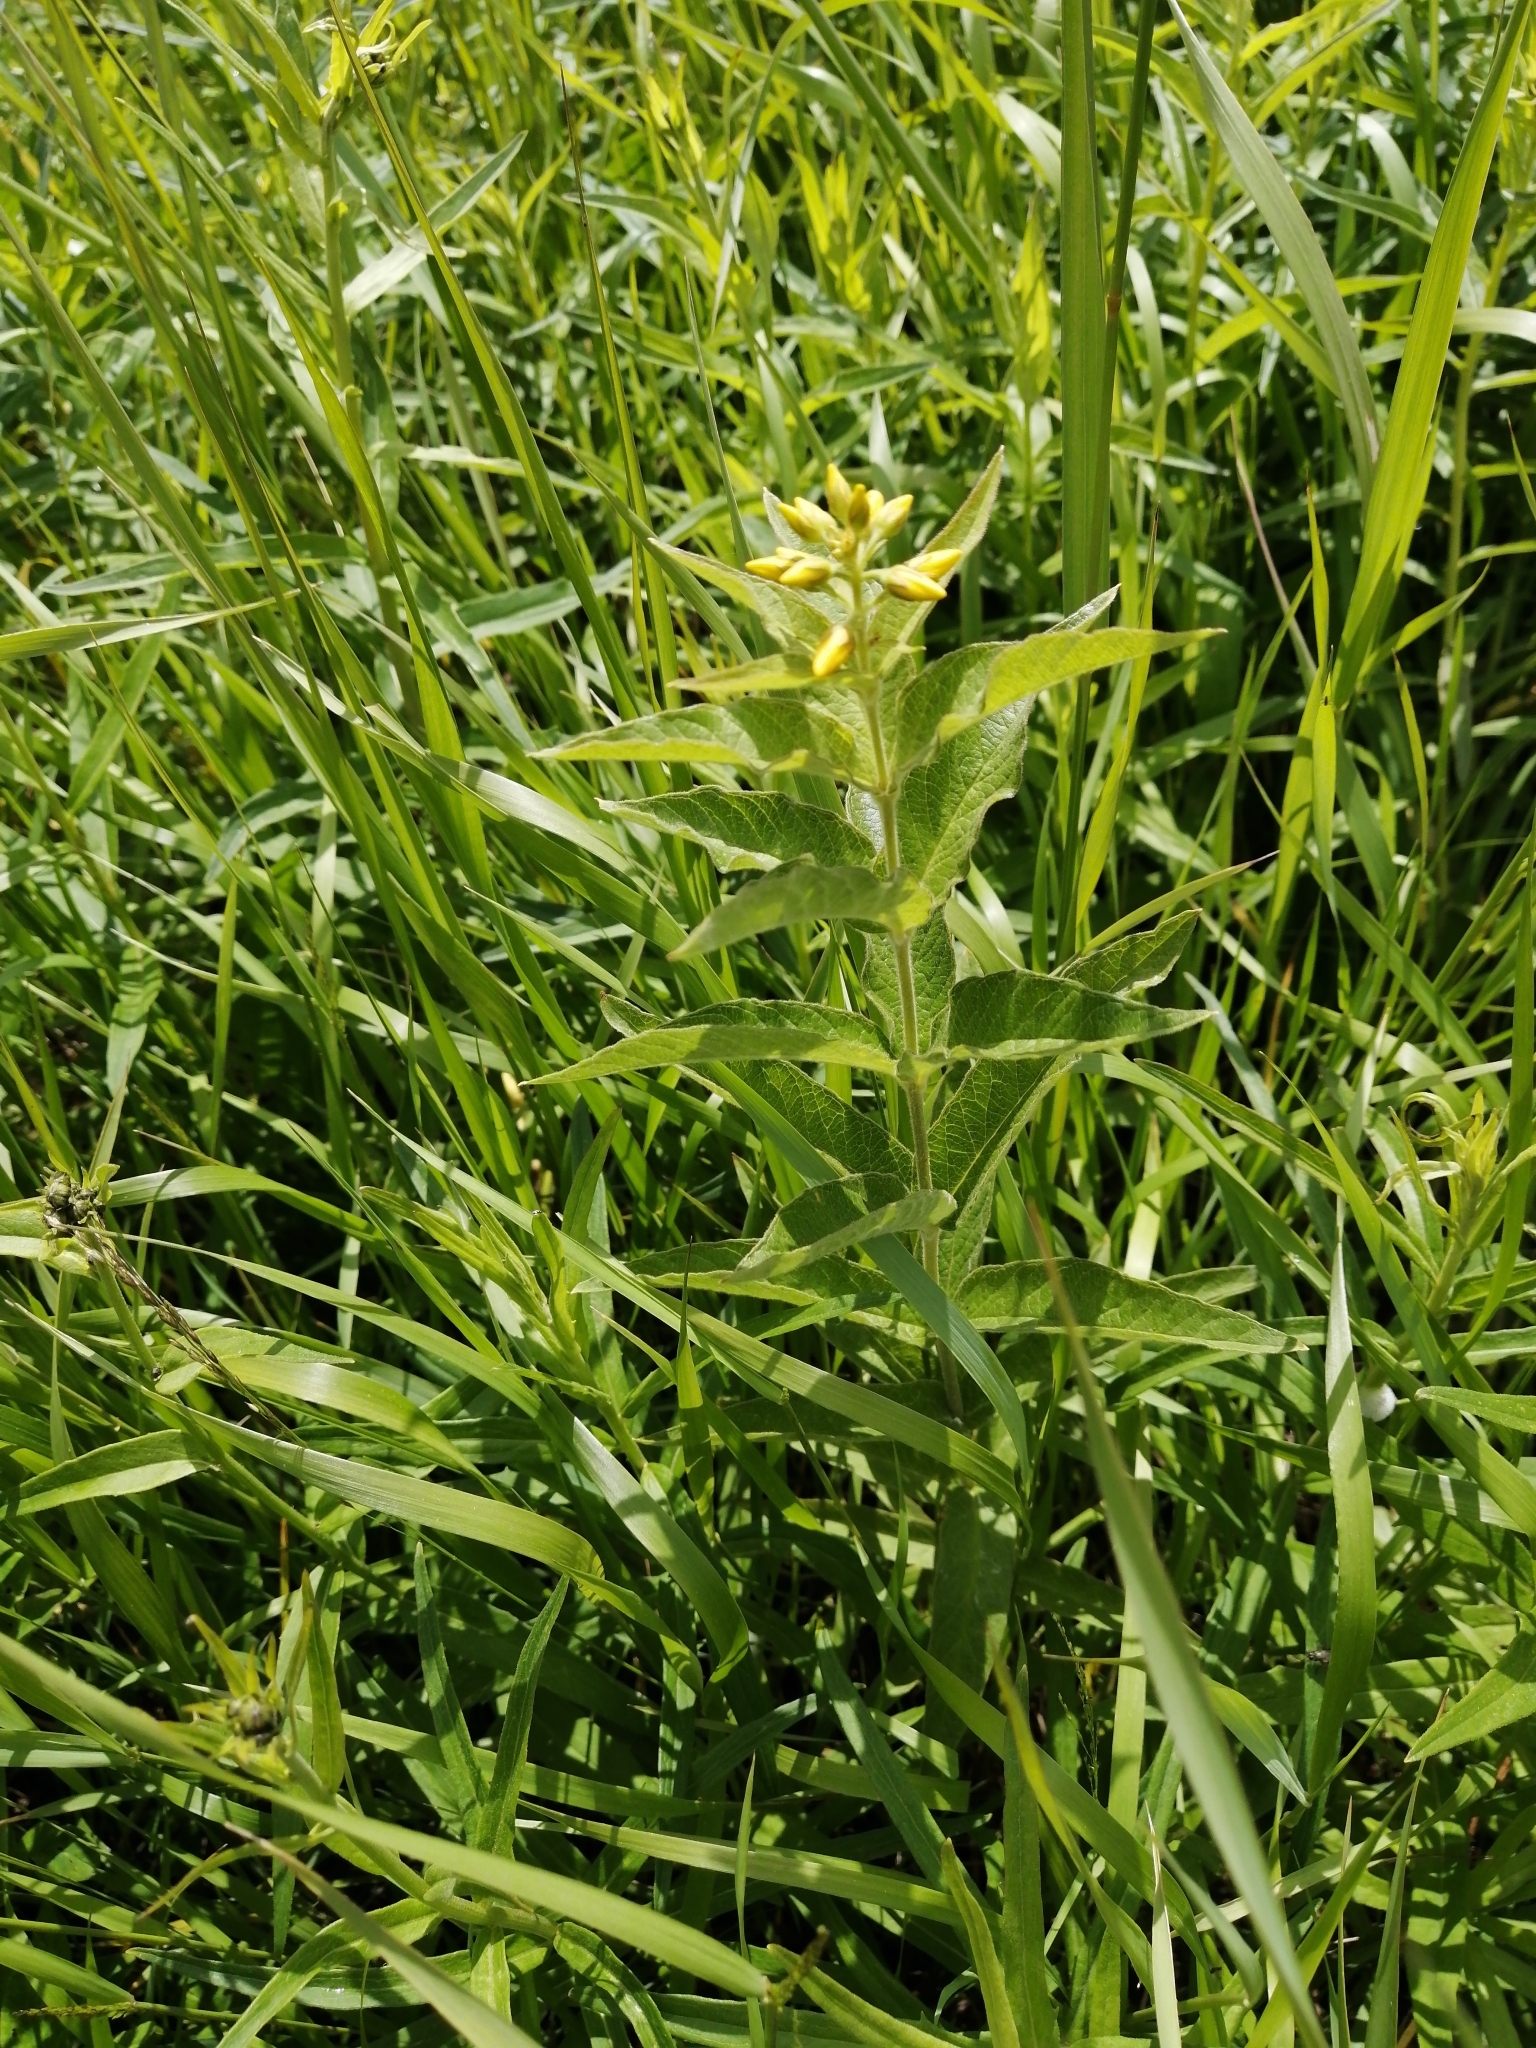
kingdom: Plantae
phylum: Tracheophyta
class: Magnoliopsida
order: Ericales
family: Primulaceae
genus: Lysimachia
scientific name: Lysimachia vulgaris
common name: Yellow loosestrife
